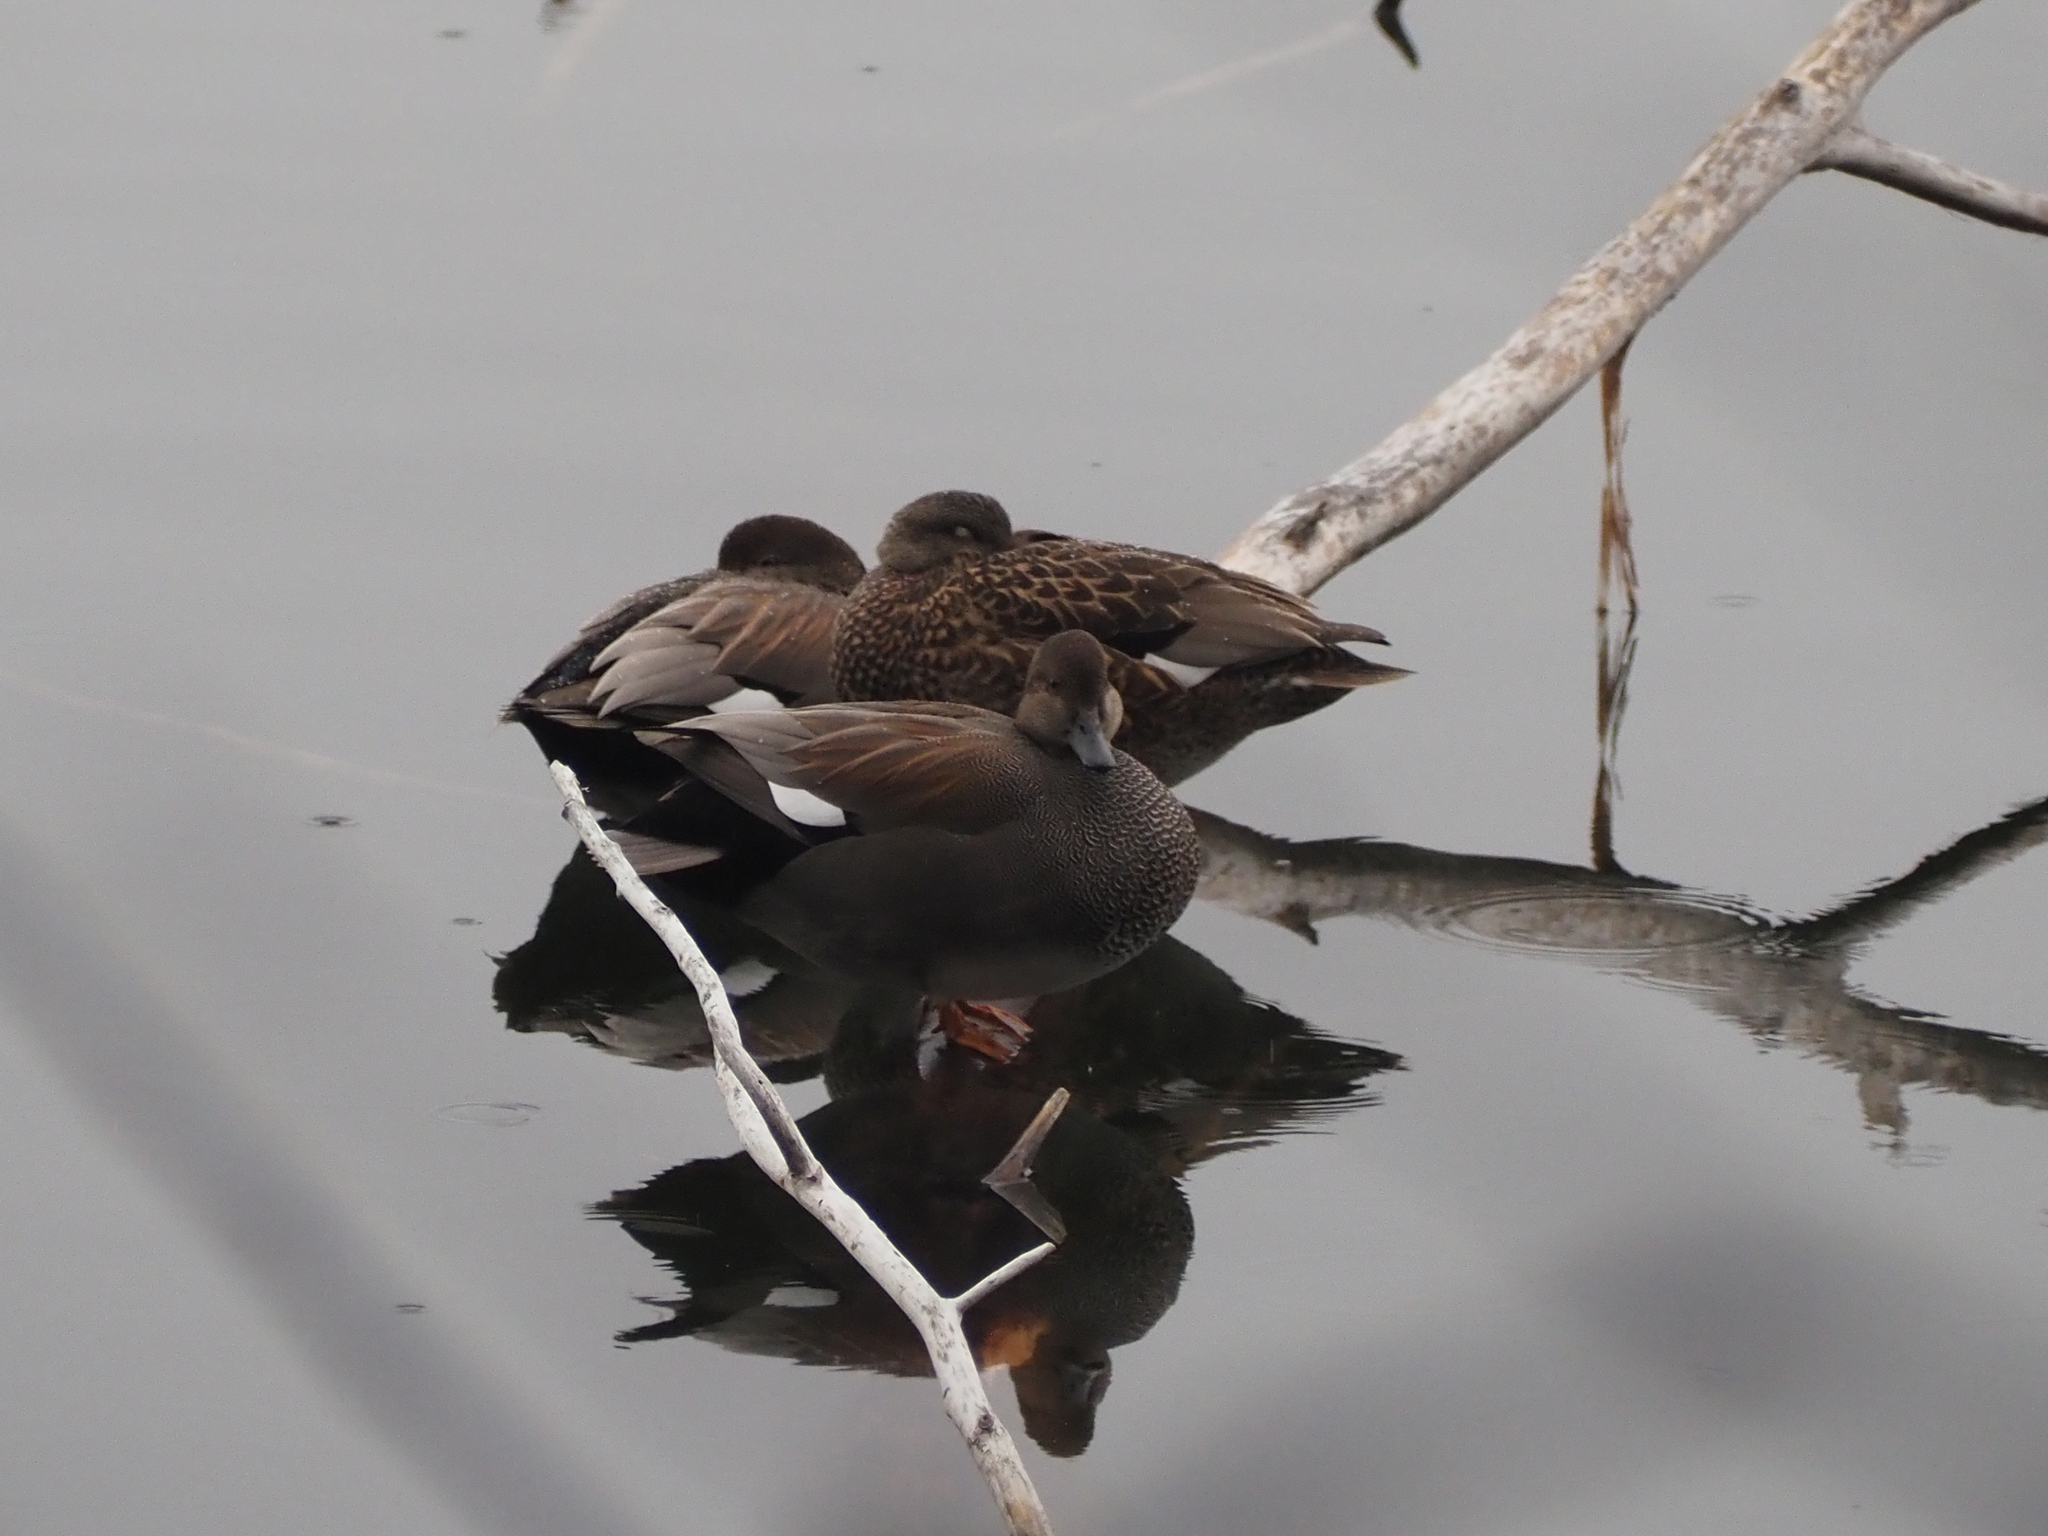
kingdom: Animalia
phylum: Chordata
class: Aves
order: Anseriformes
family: Anatidae
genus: Mareca
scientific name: Mareca strepera
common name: Gadwall
